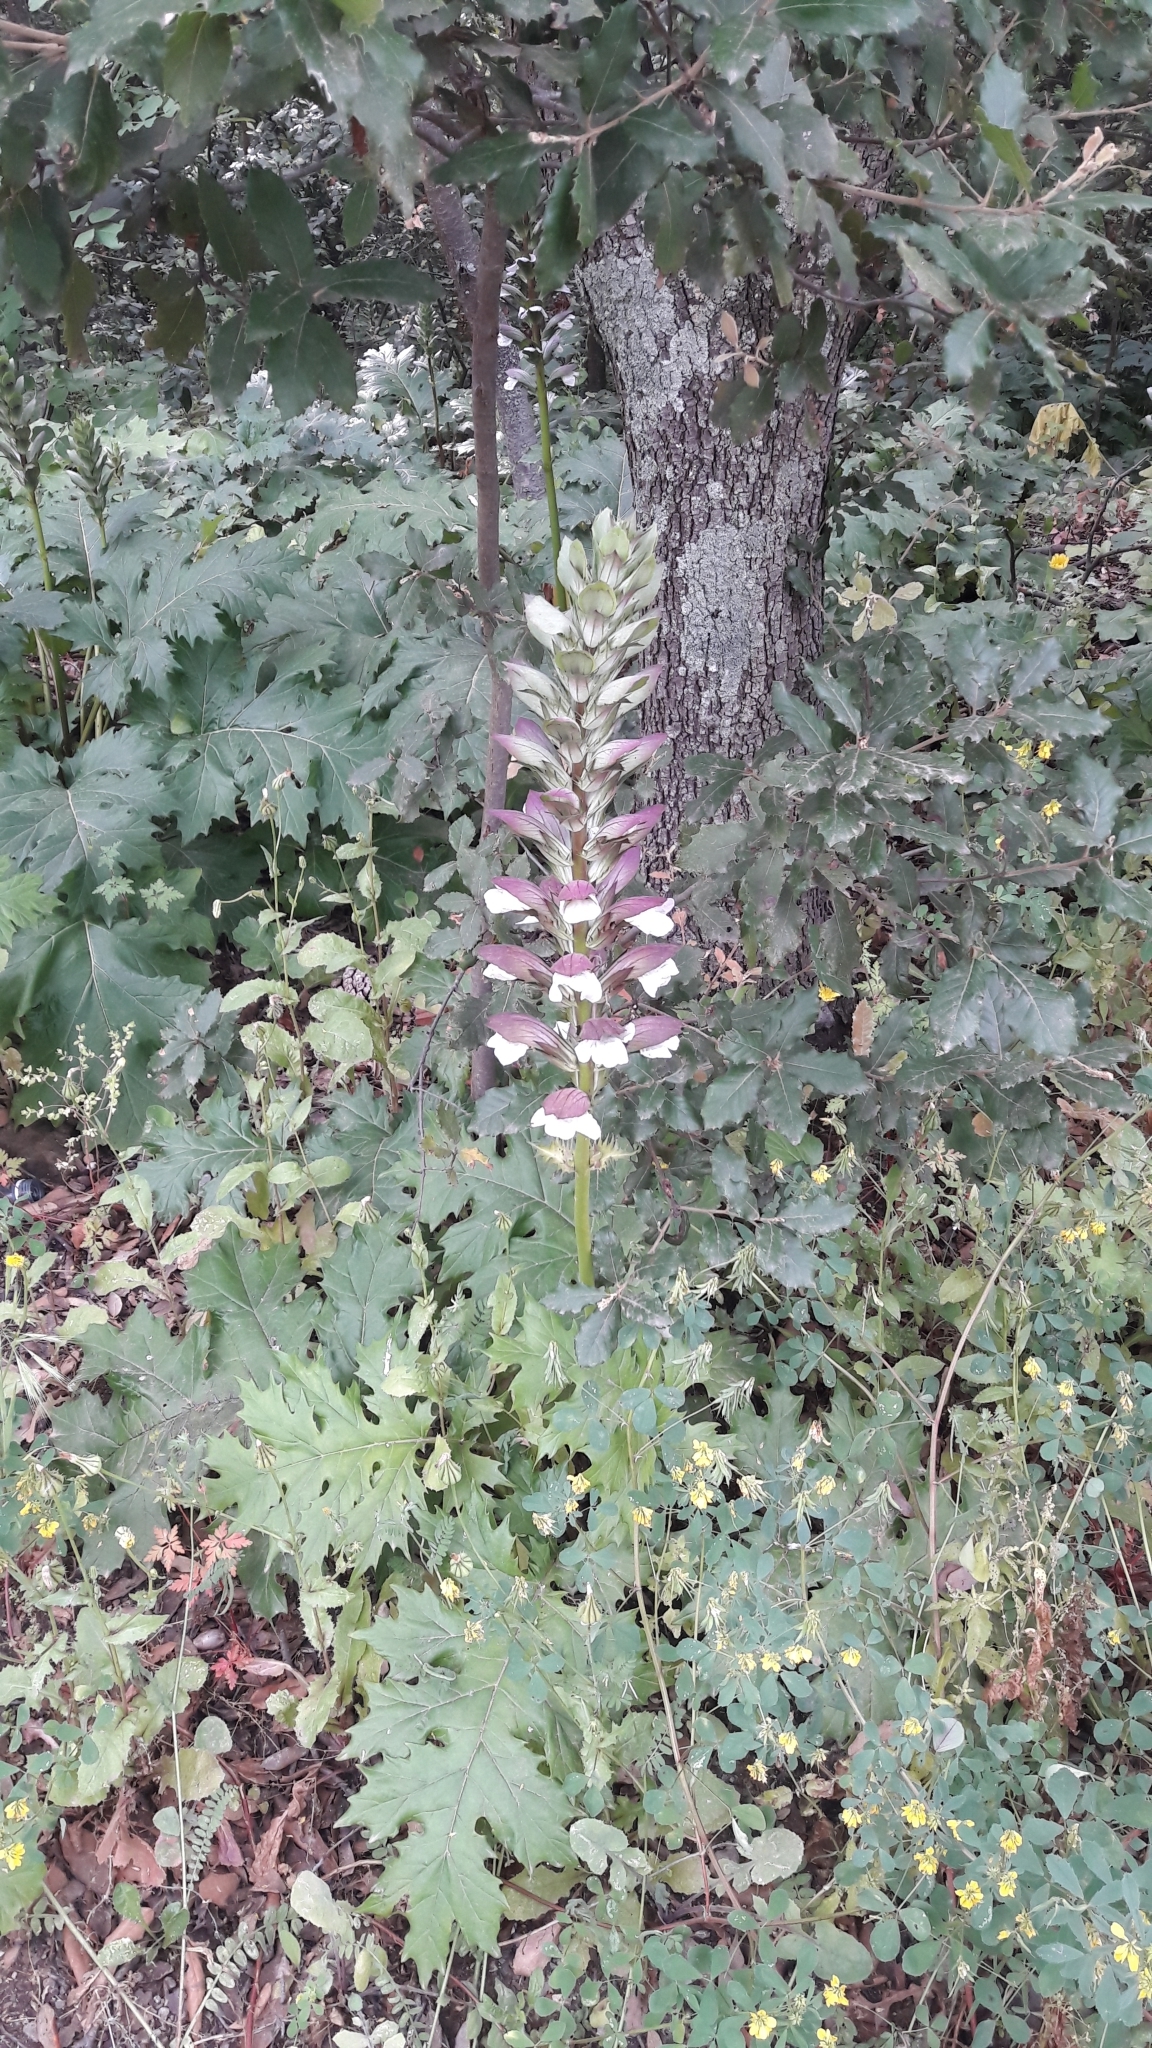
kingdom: Plantae
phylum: Tracheophyta
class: Magnoliopsida
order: Lamiales
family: Acanthaceae
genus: Acanthus
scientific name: Acanthus mollis
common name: Bear's-breech
